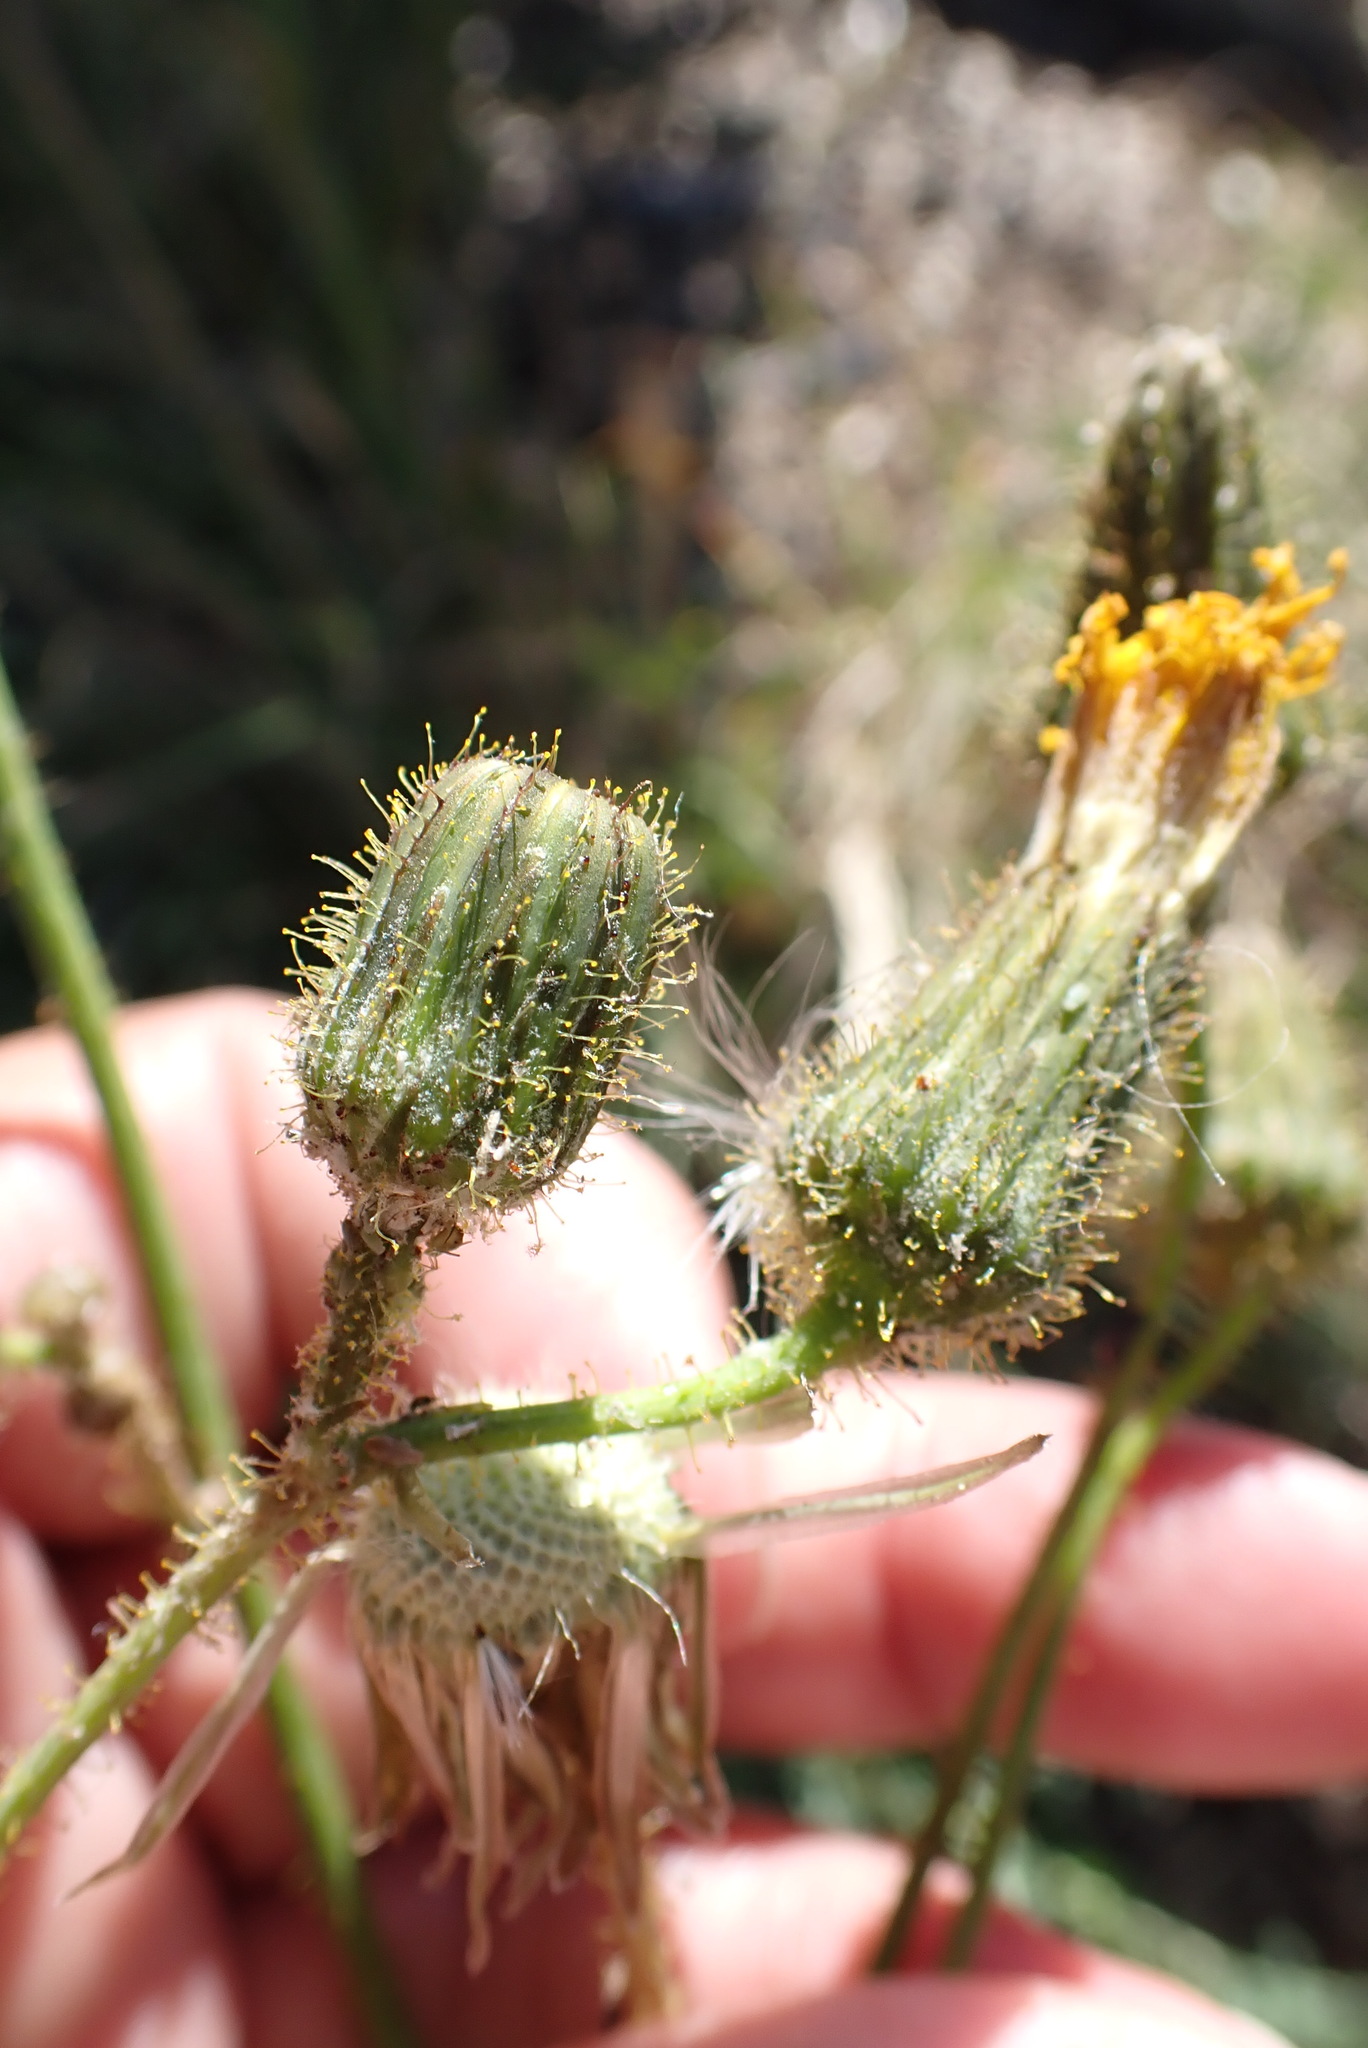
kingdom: Plantae
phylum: Tracheophyta
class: Magnoliopsida
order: Asterales
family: Asteraceae
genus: Sonchus
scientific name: Sonchus arvensis
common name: Perennial sow-thistle
